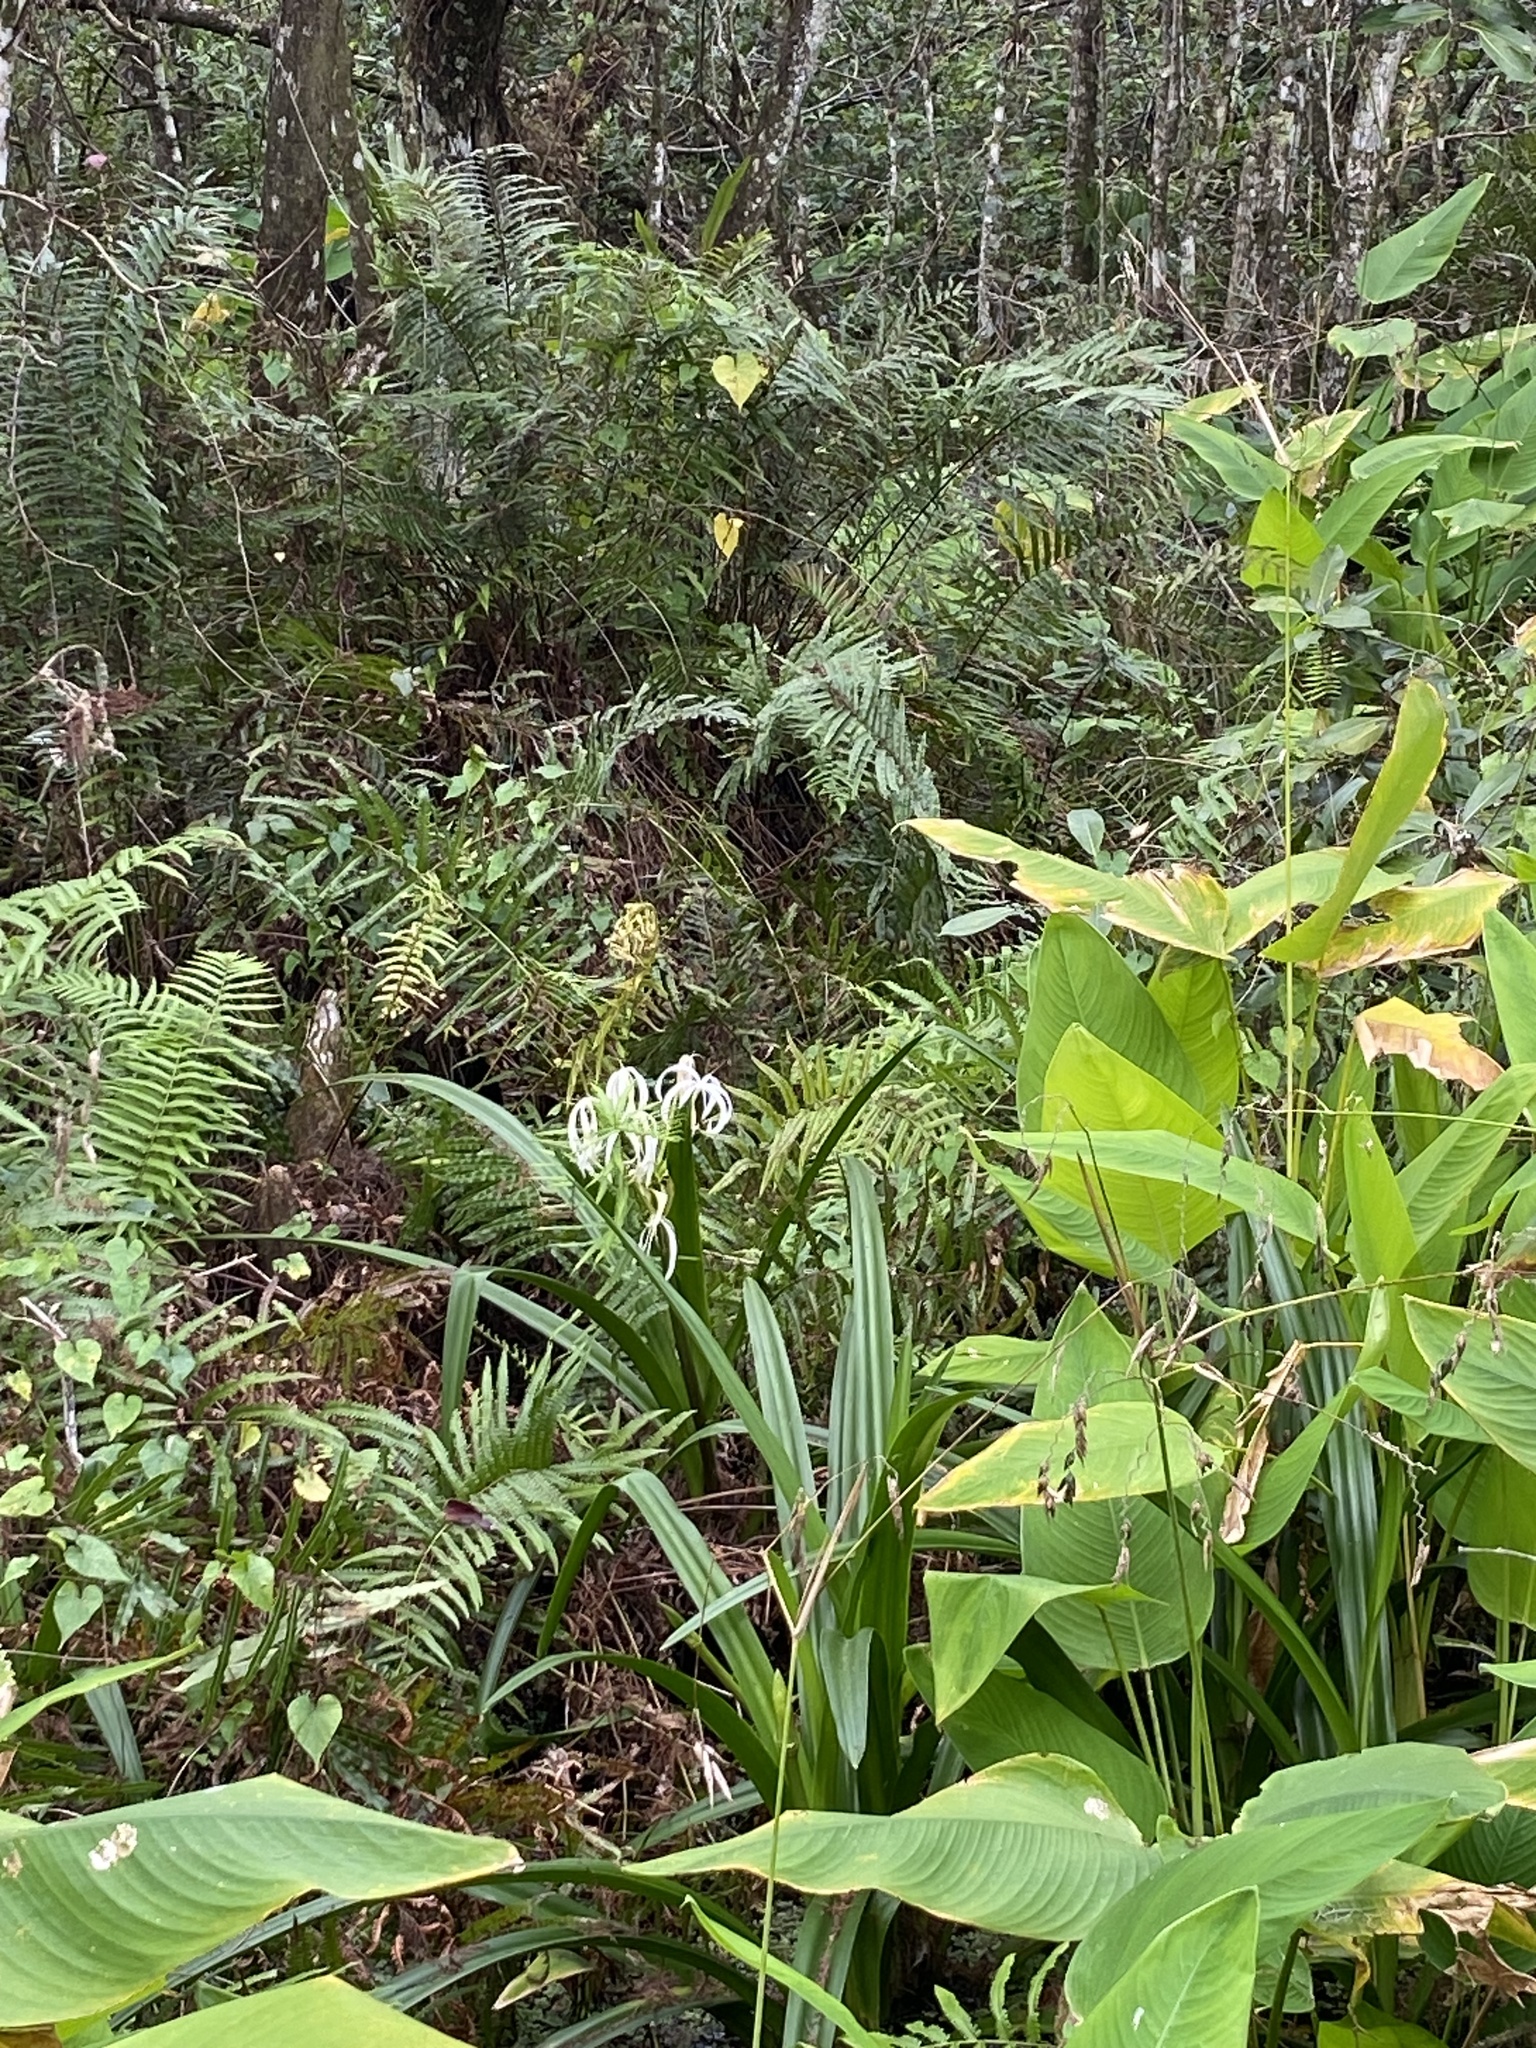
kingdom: Plantae
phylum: Tracheophyta
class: Liliopsida
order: Asparagales
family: Amaryllidaceae
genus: Crinum
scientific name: Crinum americanum
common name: Florida swamp-lily
